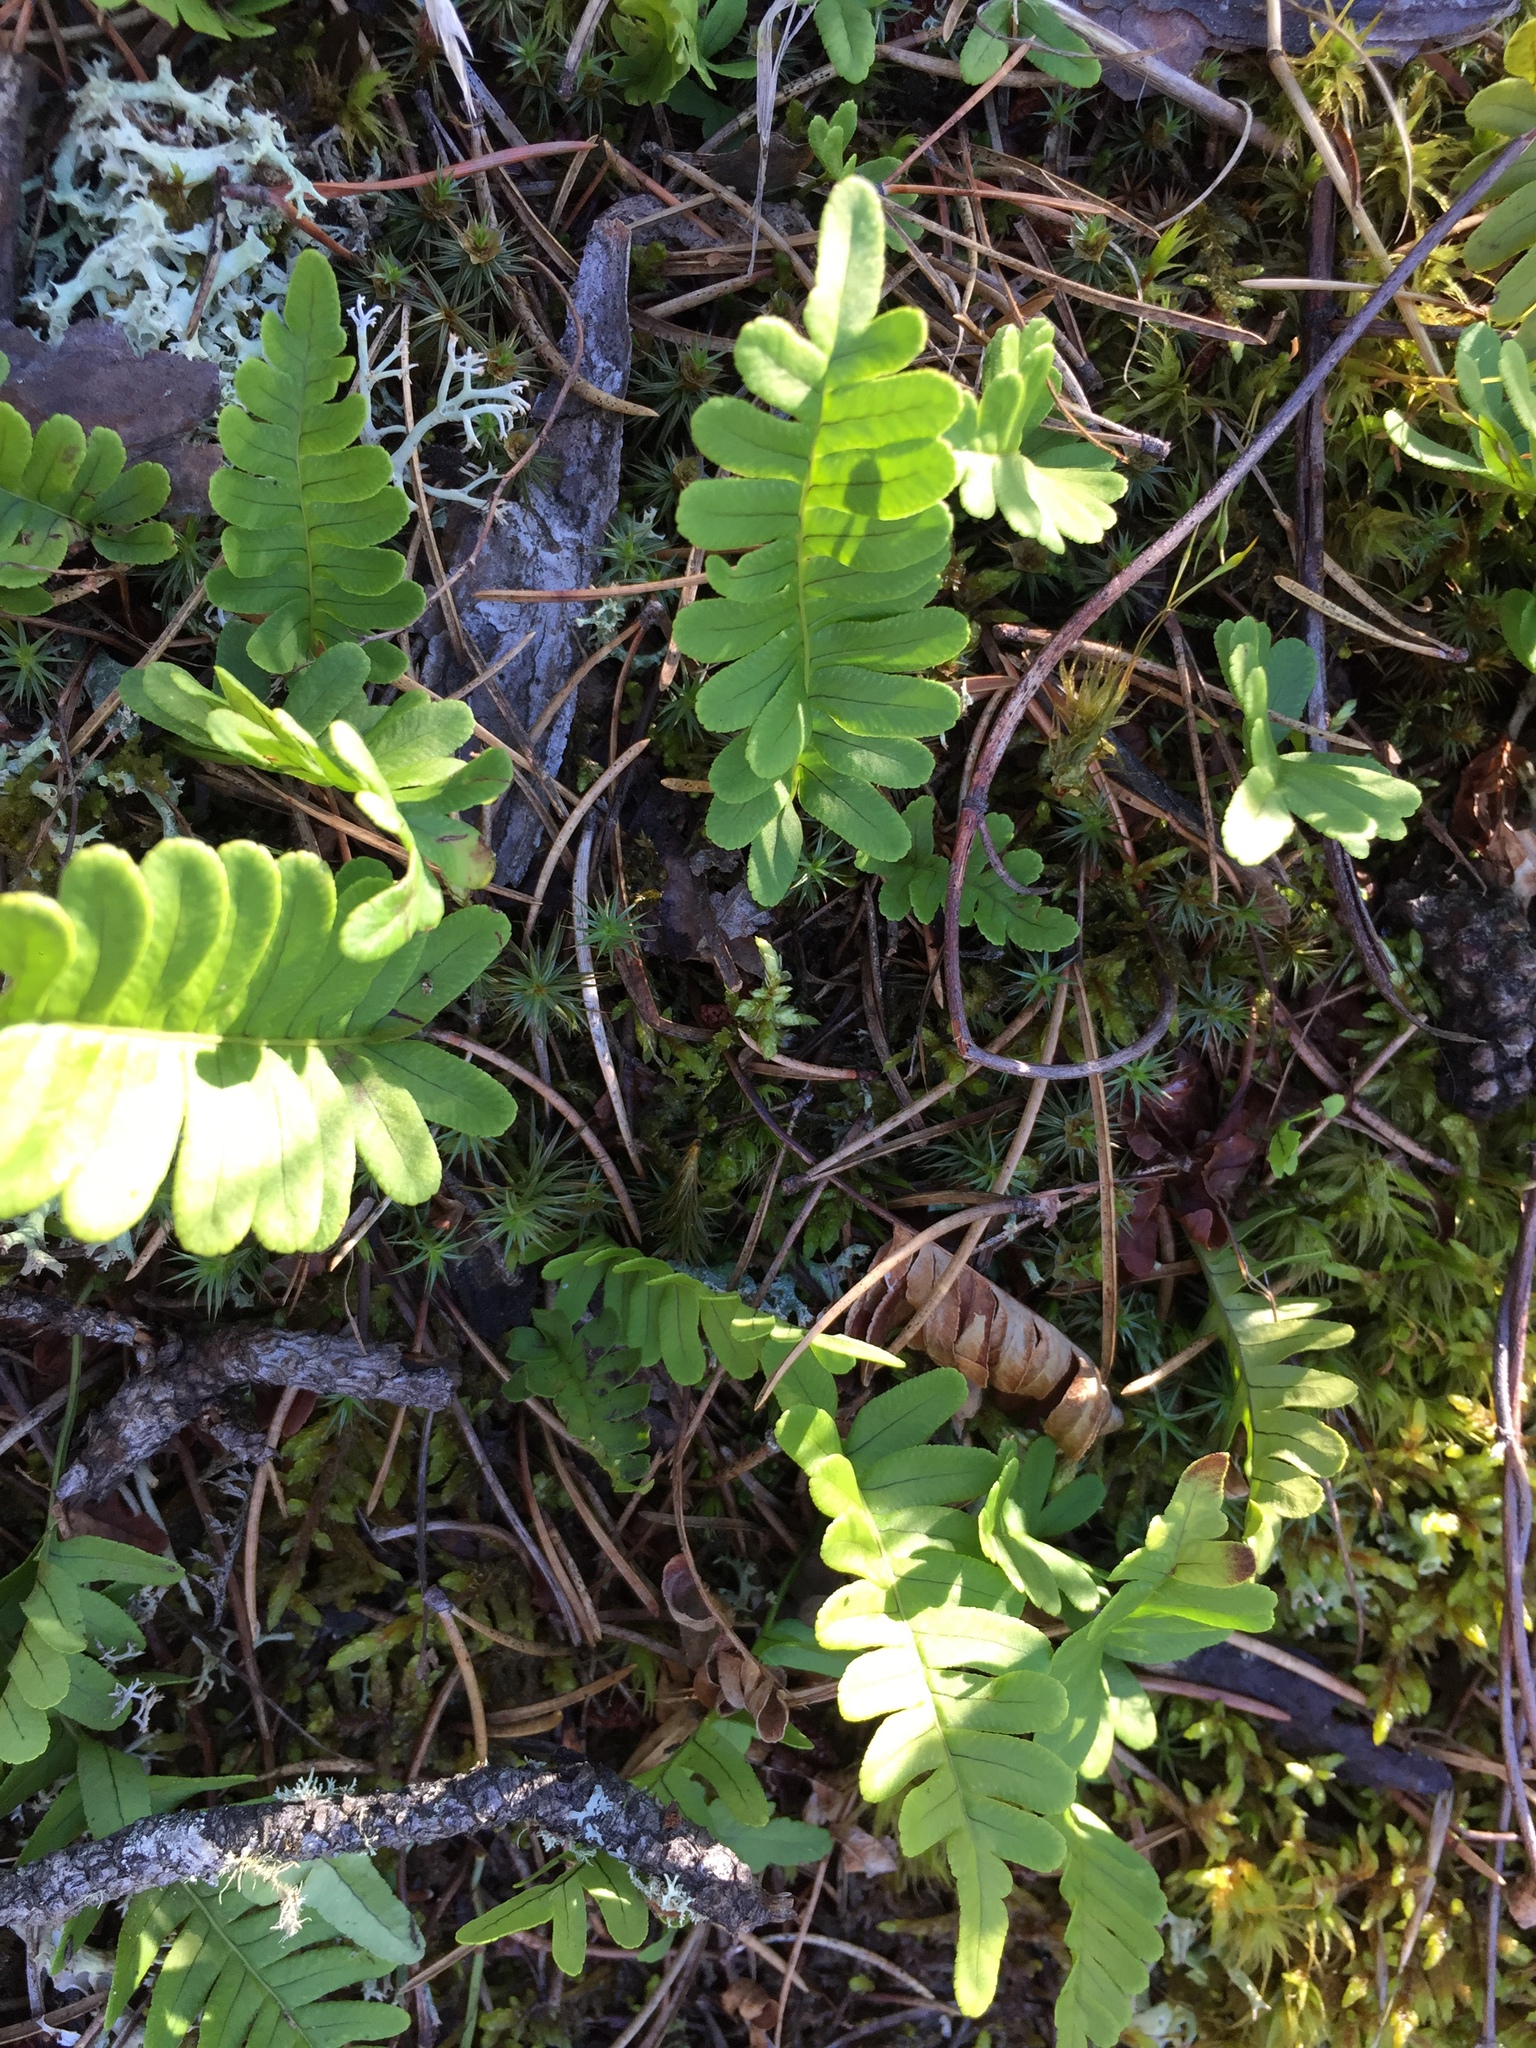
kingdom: Plantae
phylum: Tracheophyta
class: Polypodiopsida
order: Polypodiales
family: Polypodiaceae
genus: Polypodium
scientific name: Polypodium virginianum
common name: American wall fern
